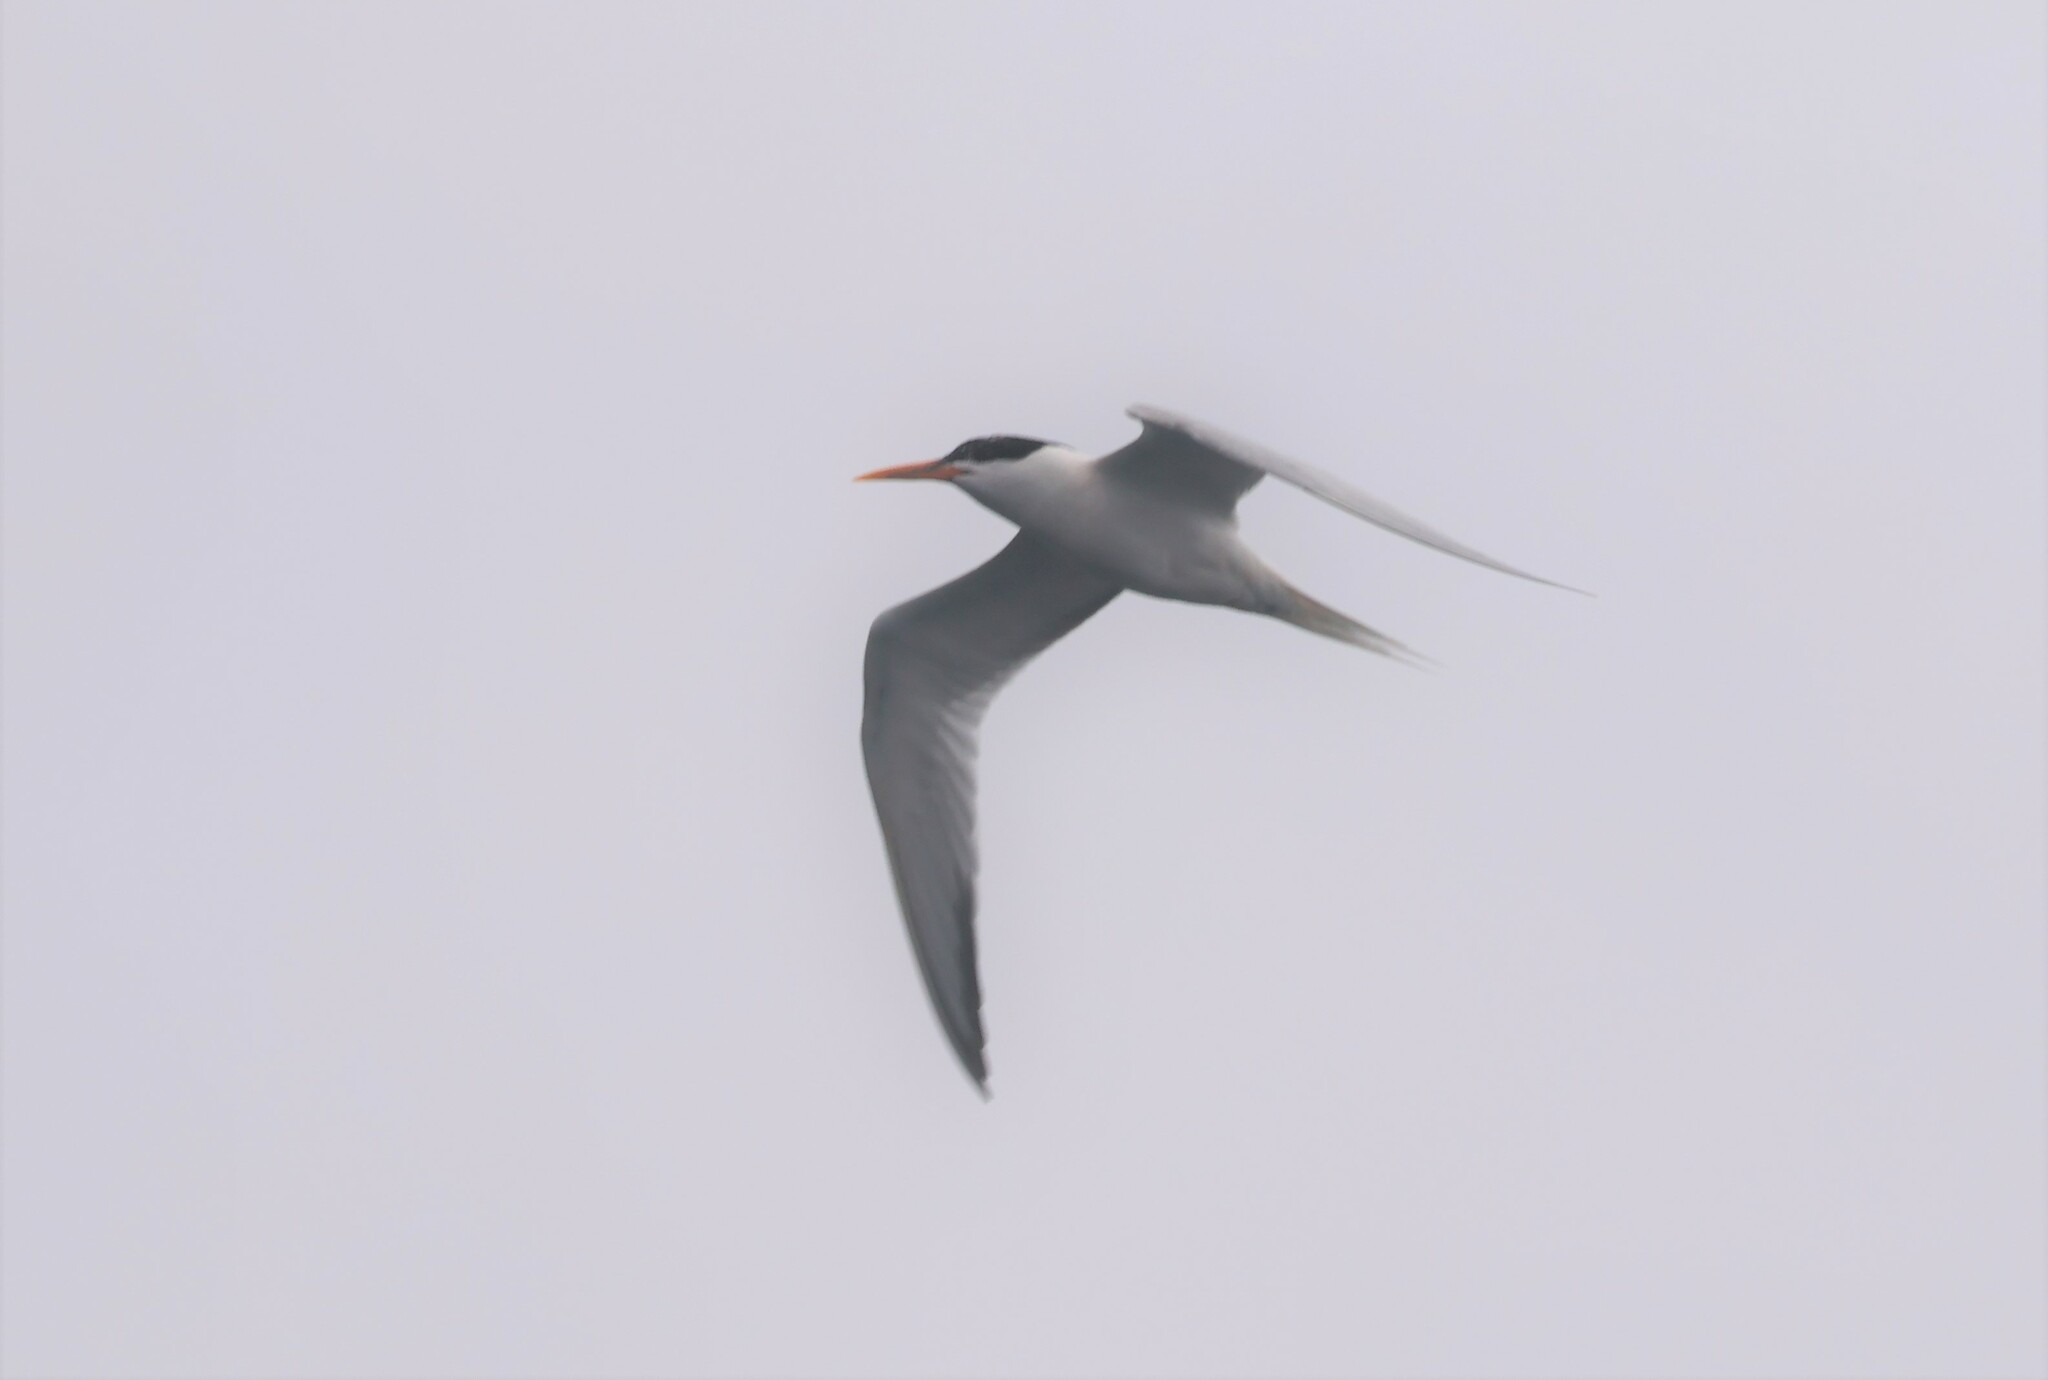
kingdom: Animalia
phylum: Chordata
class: Aves
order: Charadriiformes
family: Laridae
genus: Thalasseus
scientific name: Thalasseus elegans
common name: Elegant tern
